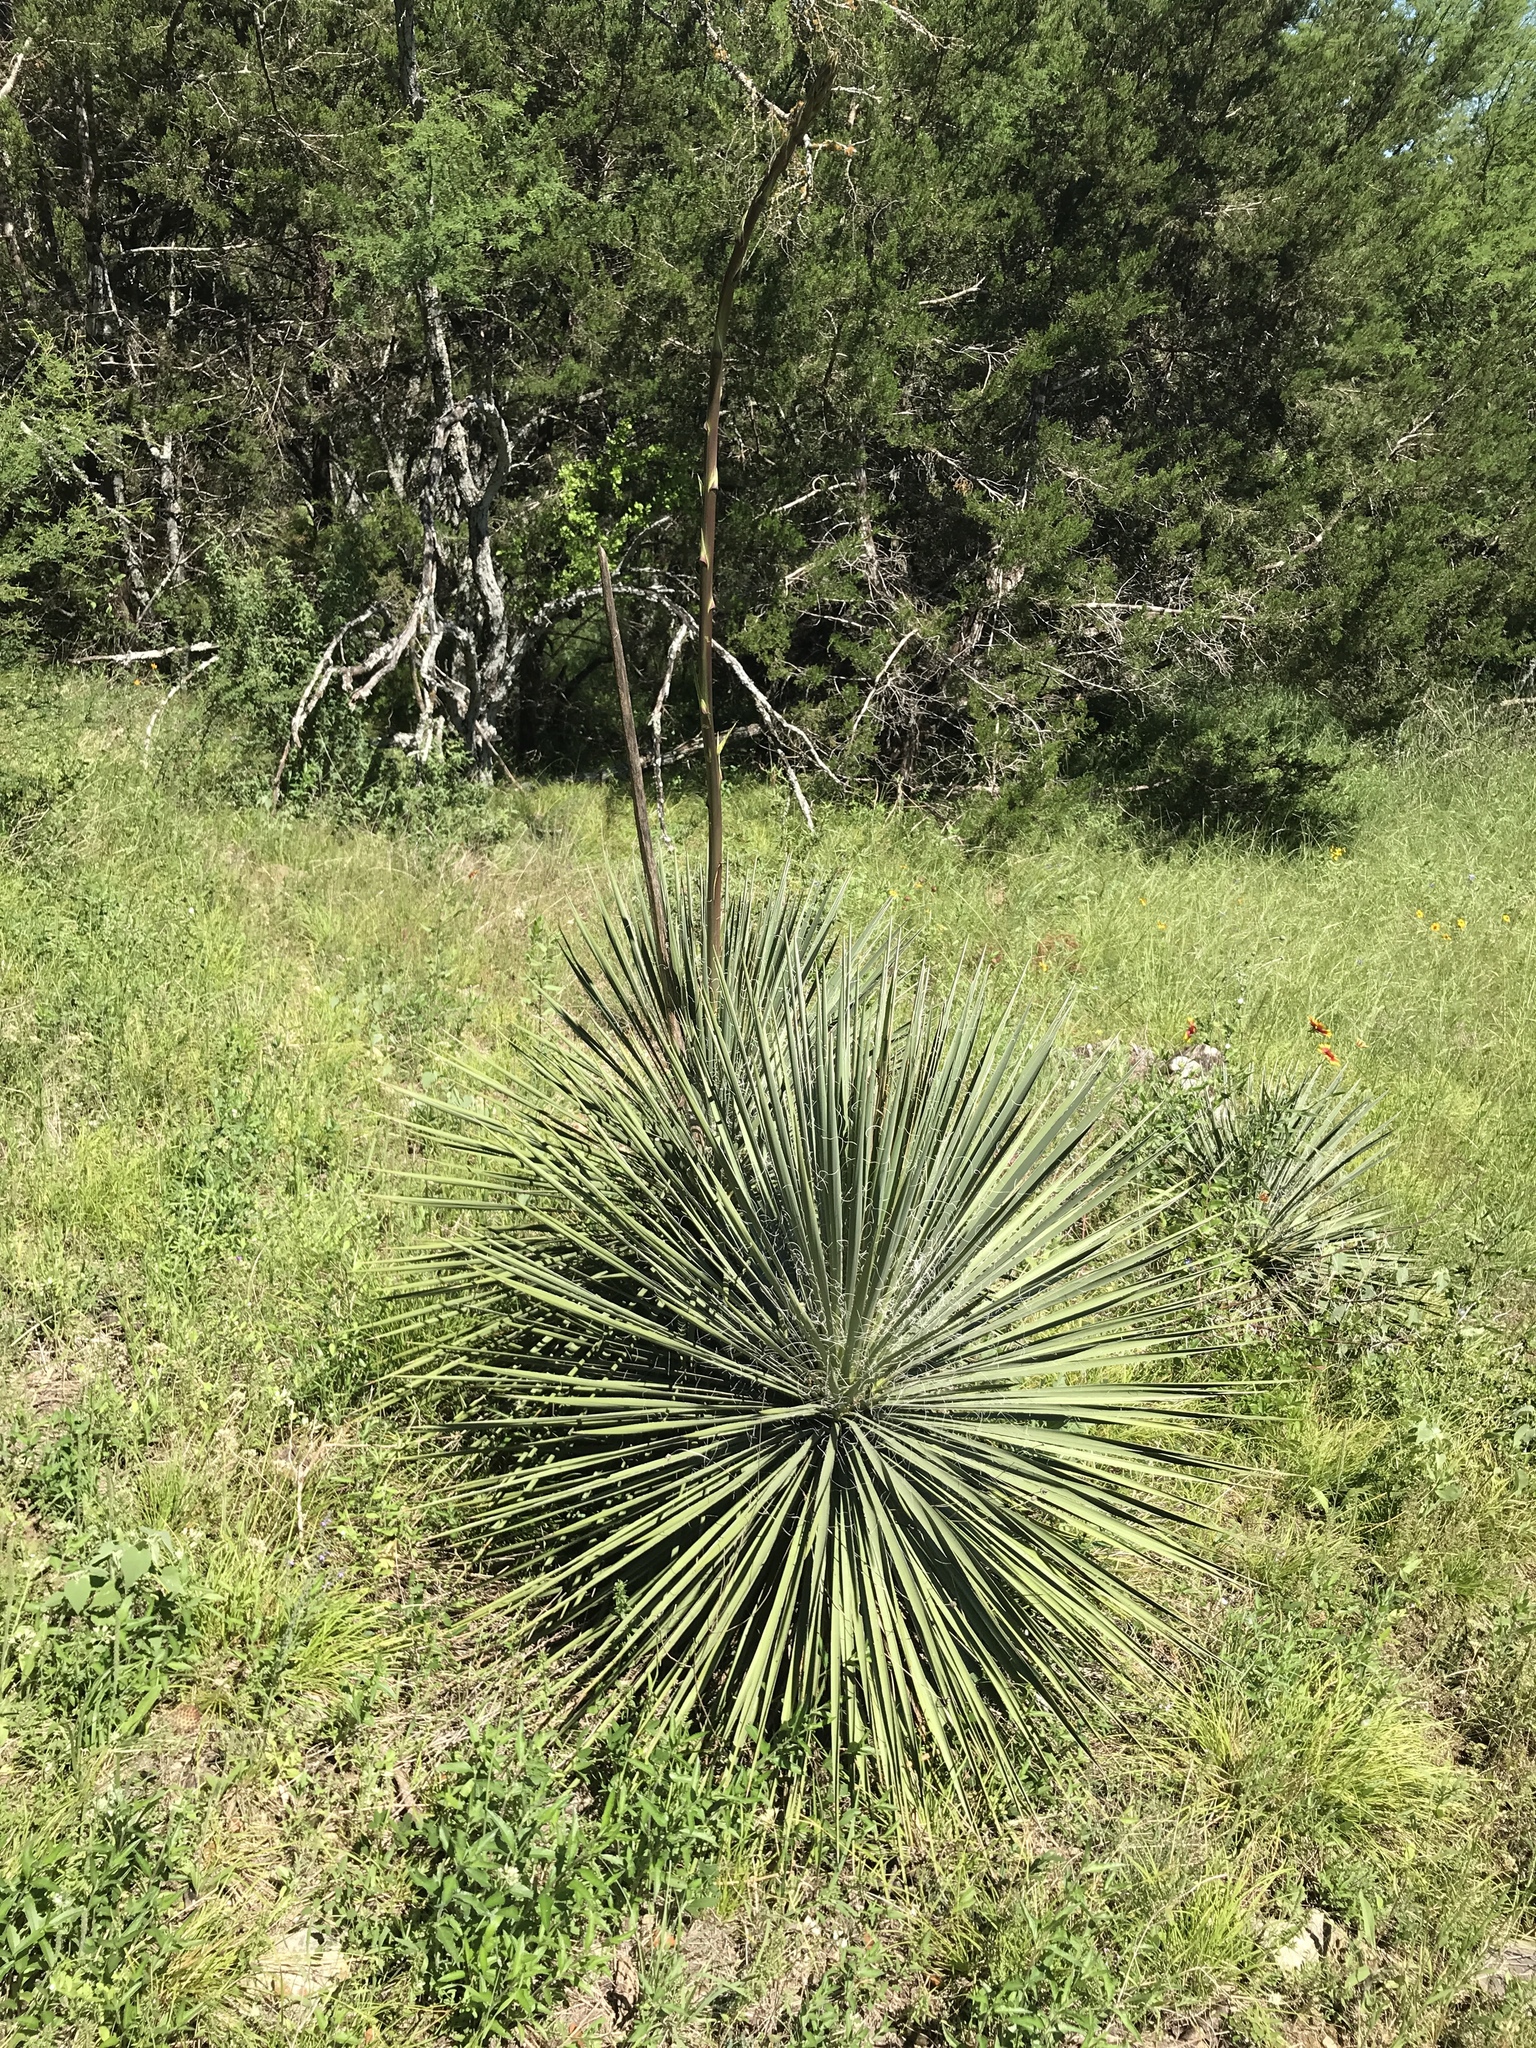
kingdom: Plantae
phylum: Tracheophyta
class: Liliopsida
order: Asparagales
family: Asparagaceae
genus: Yucca
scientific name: Yucca constricta
